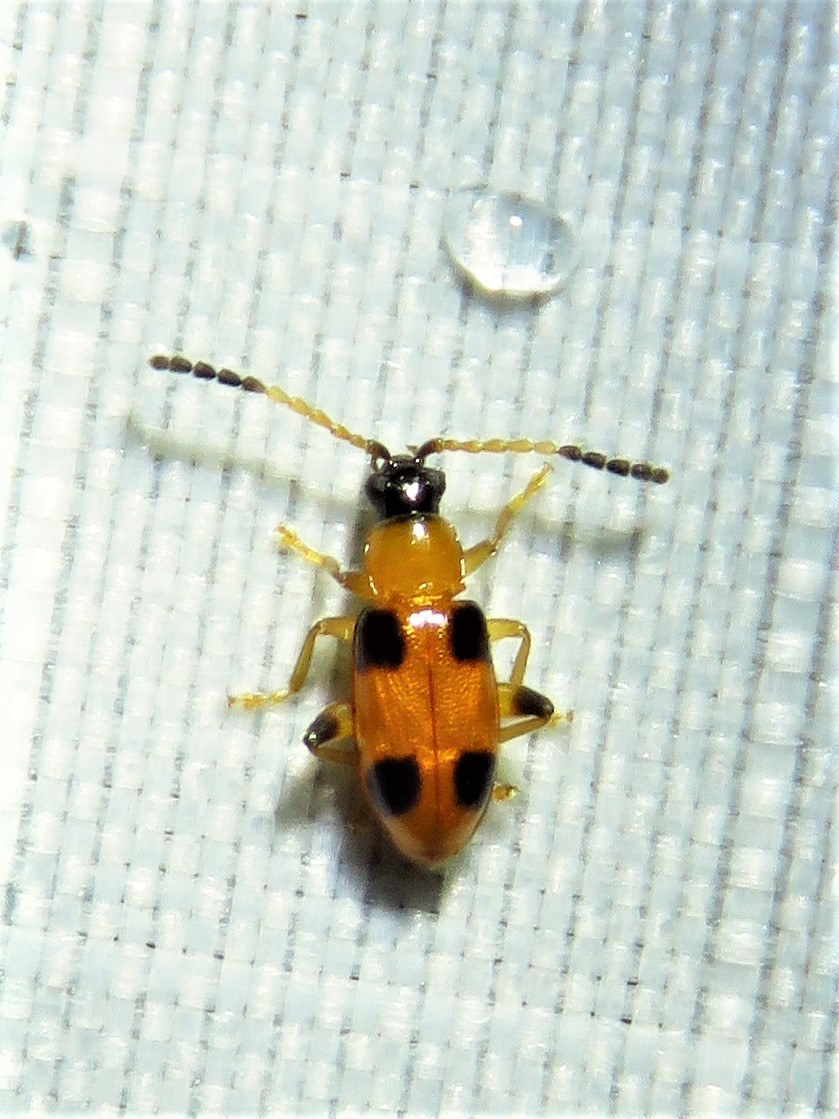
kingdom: Animalia
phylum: Arthropoda
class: Insecta
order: Coleoptera
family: Chrysomelidae
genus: Cornulactica
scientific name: Cornulactica
